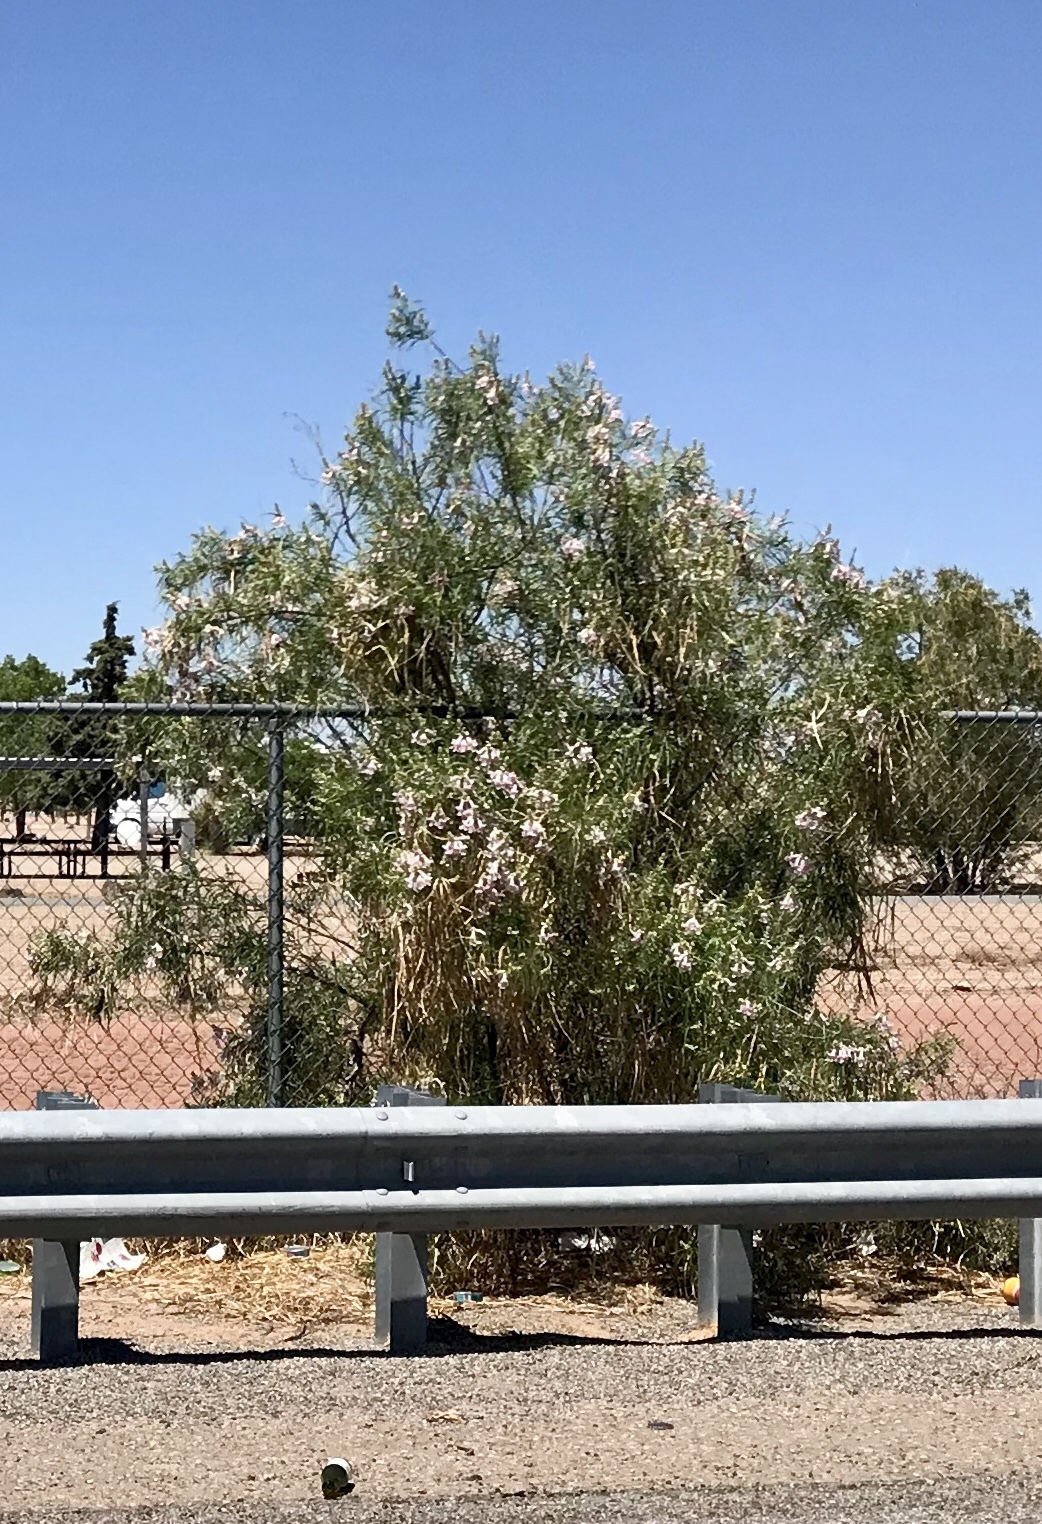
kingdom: Plantae
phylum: Tracheophyta
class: Magnoliopsida
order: Lamiales
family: Bignoniaceae
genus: Chilopsis
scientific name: Chilopsis linearis
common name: Desert-willow
